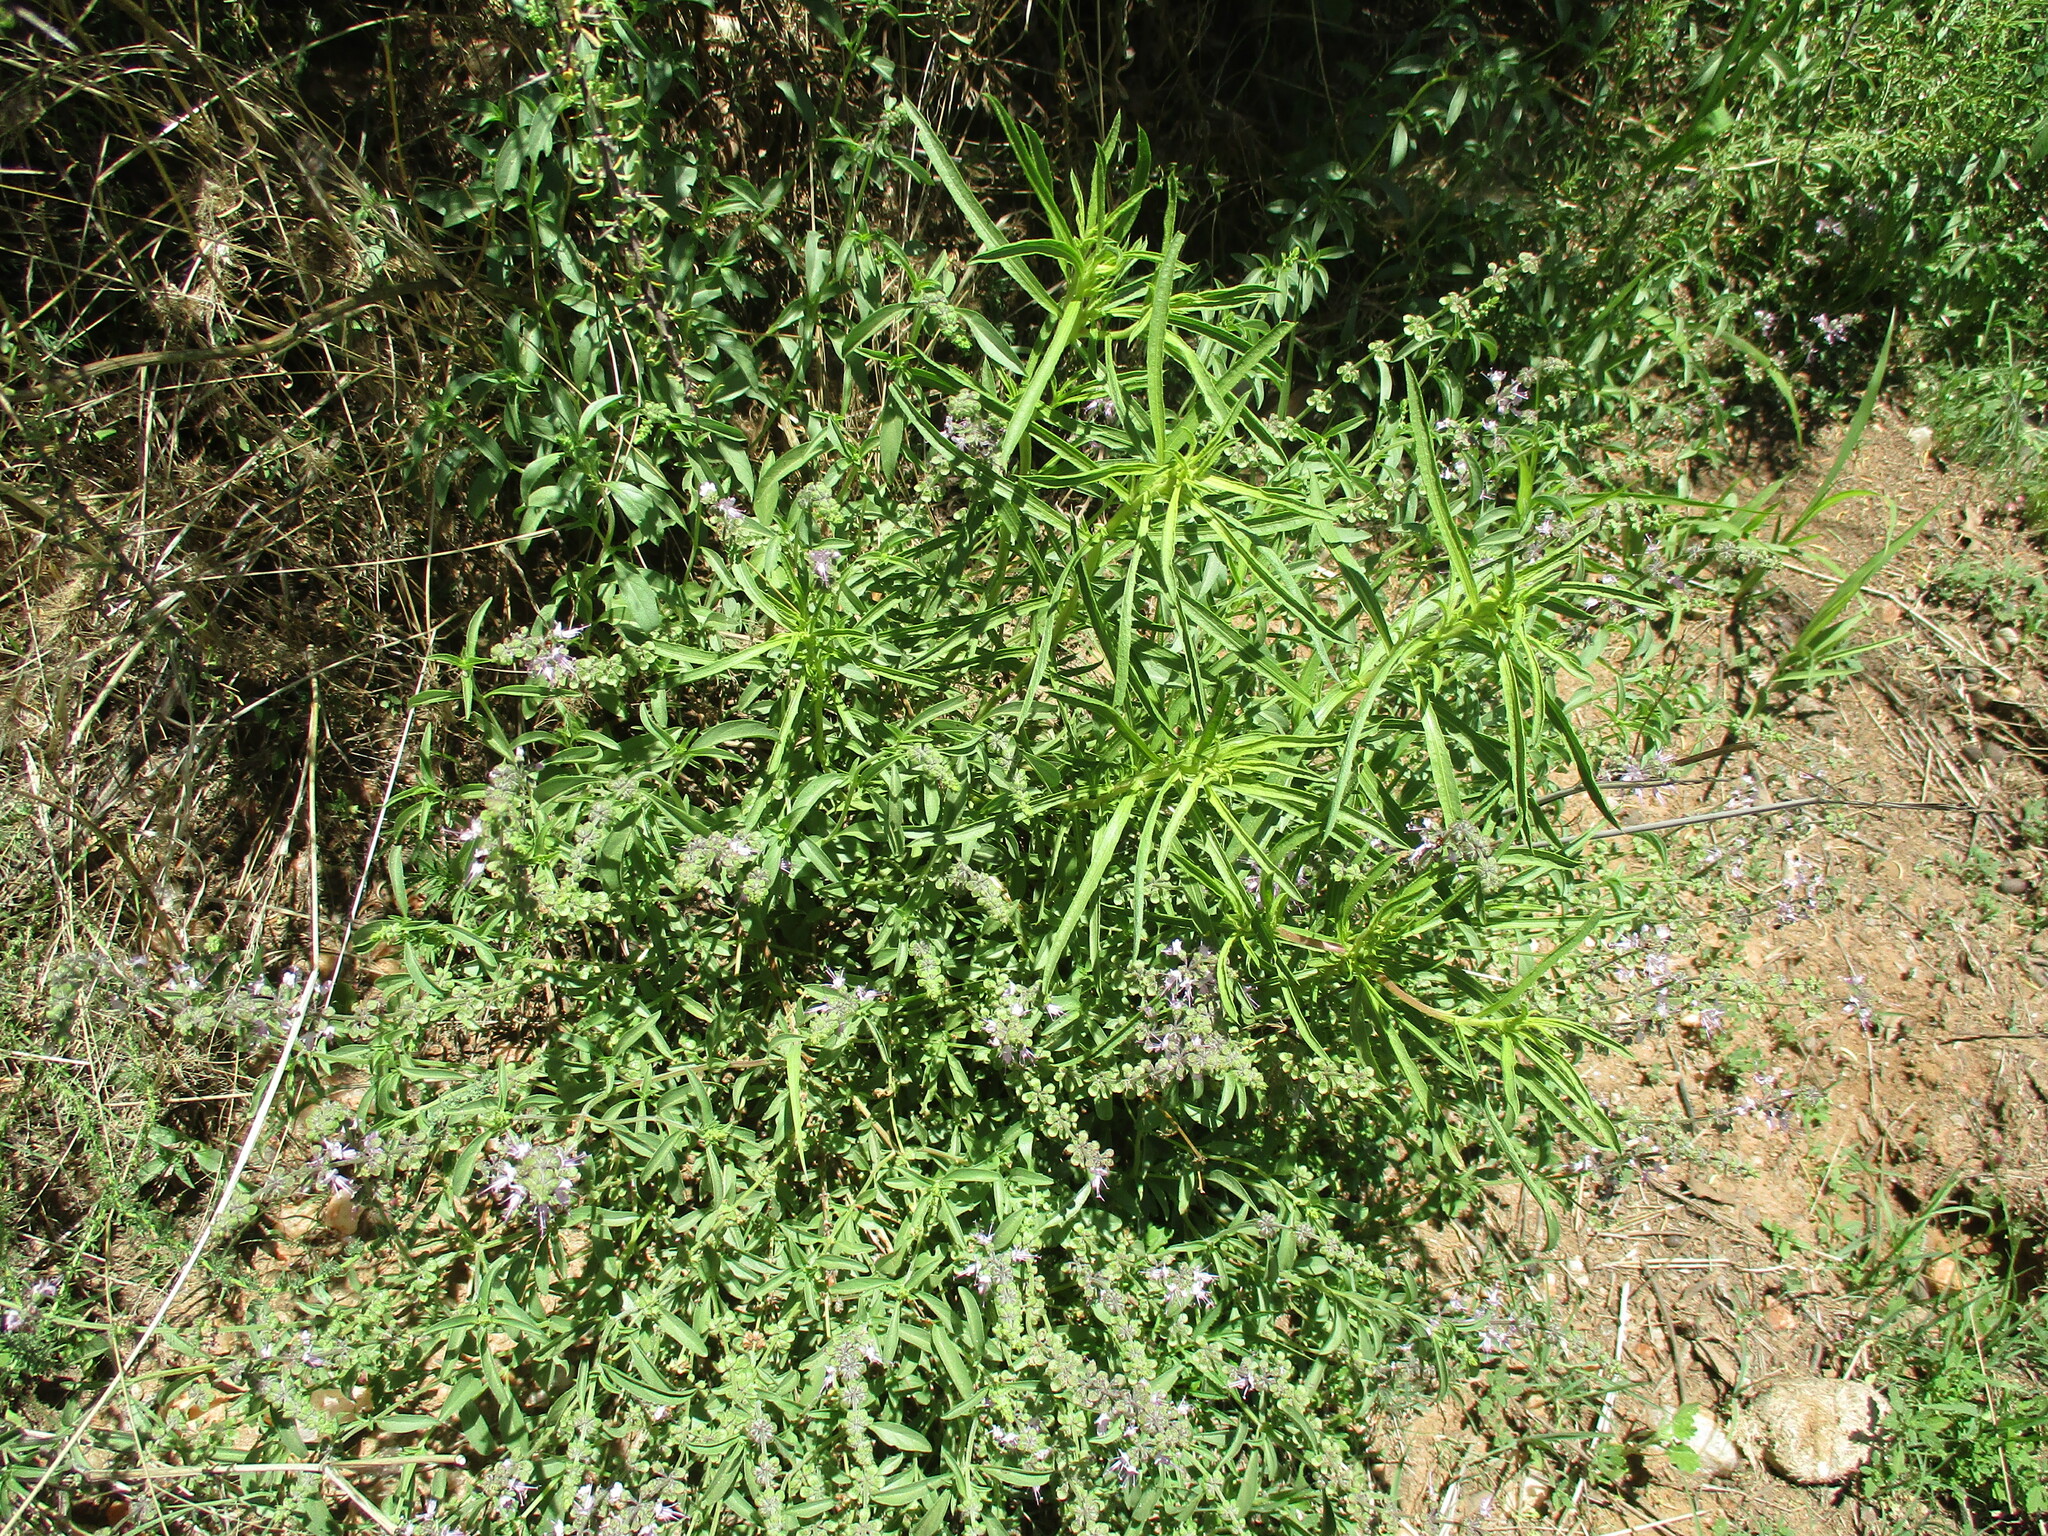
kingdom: Plantae
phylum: Tracheophyta
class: Magnoliopsida
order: Lamiales
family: Lamiaceae
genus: Ocimum
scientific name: Ocimum americanum
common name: American basil
